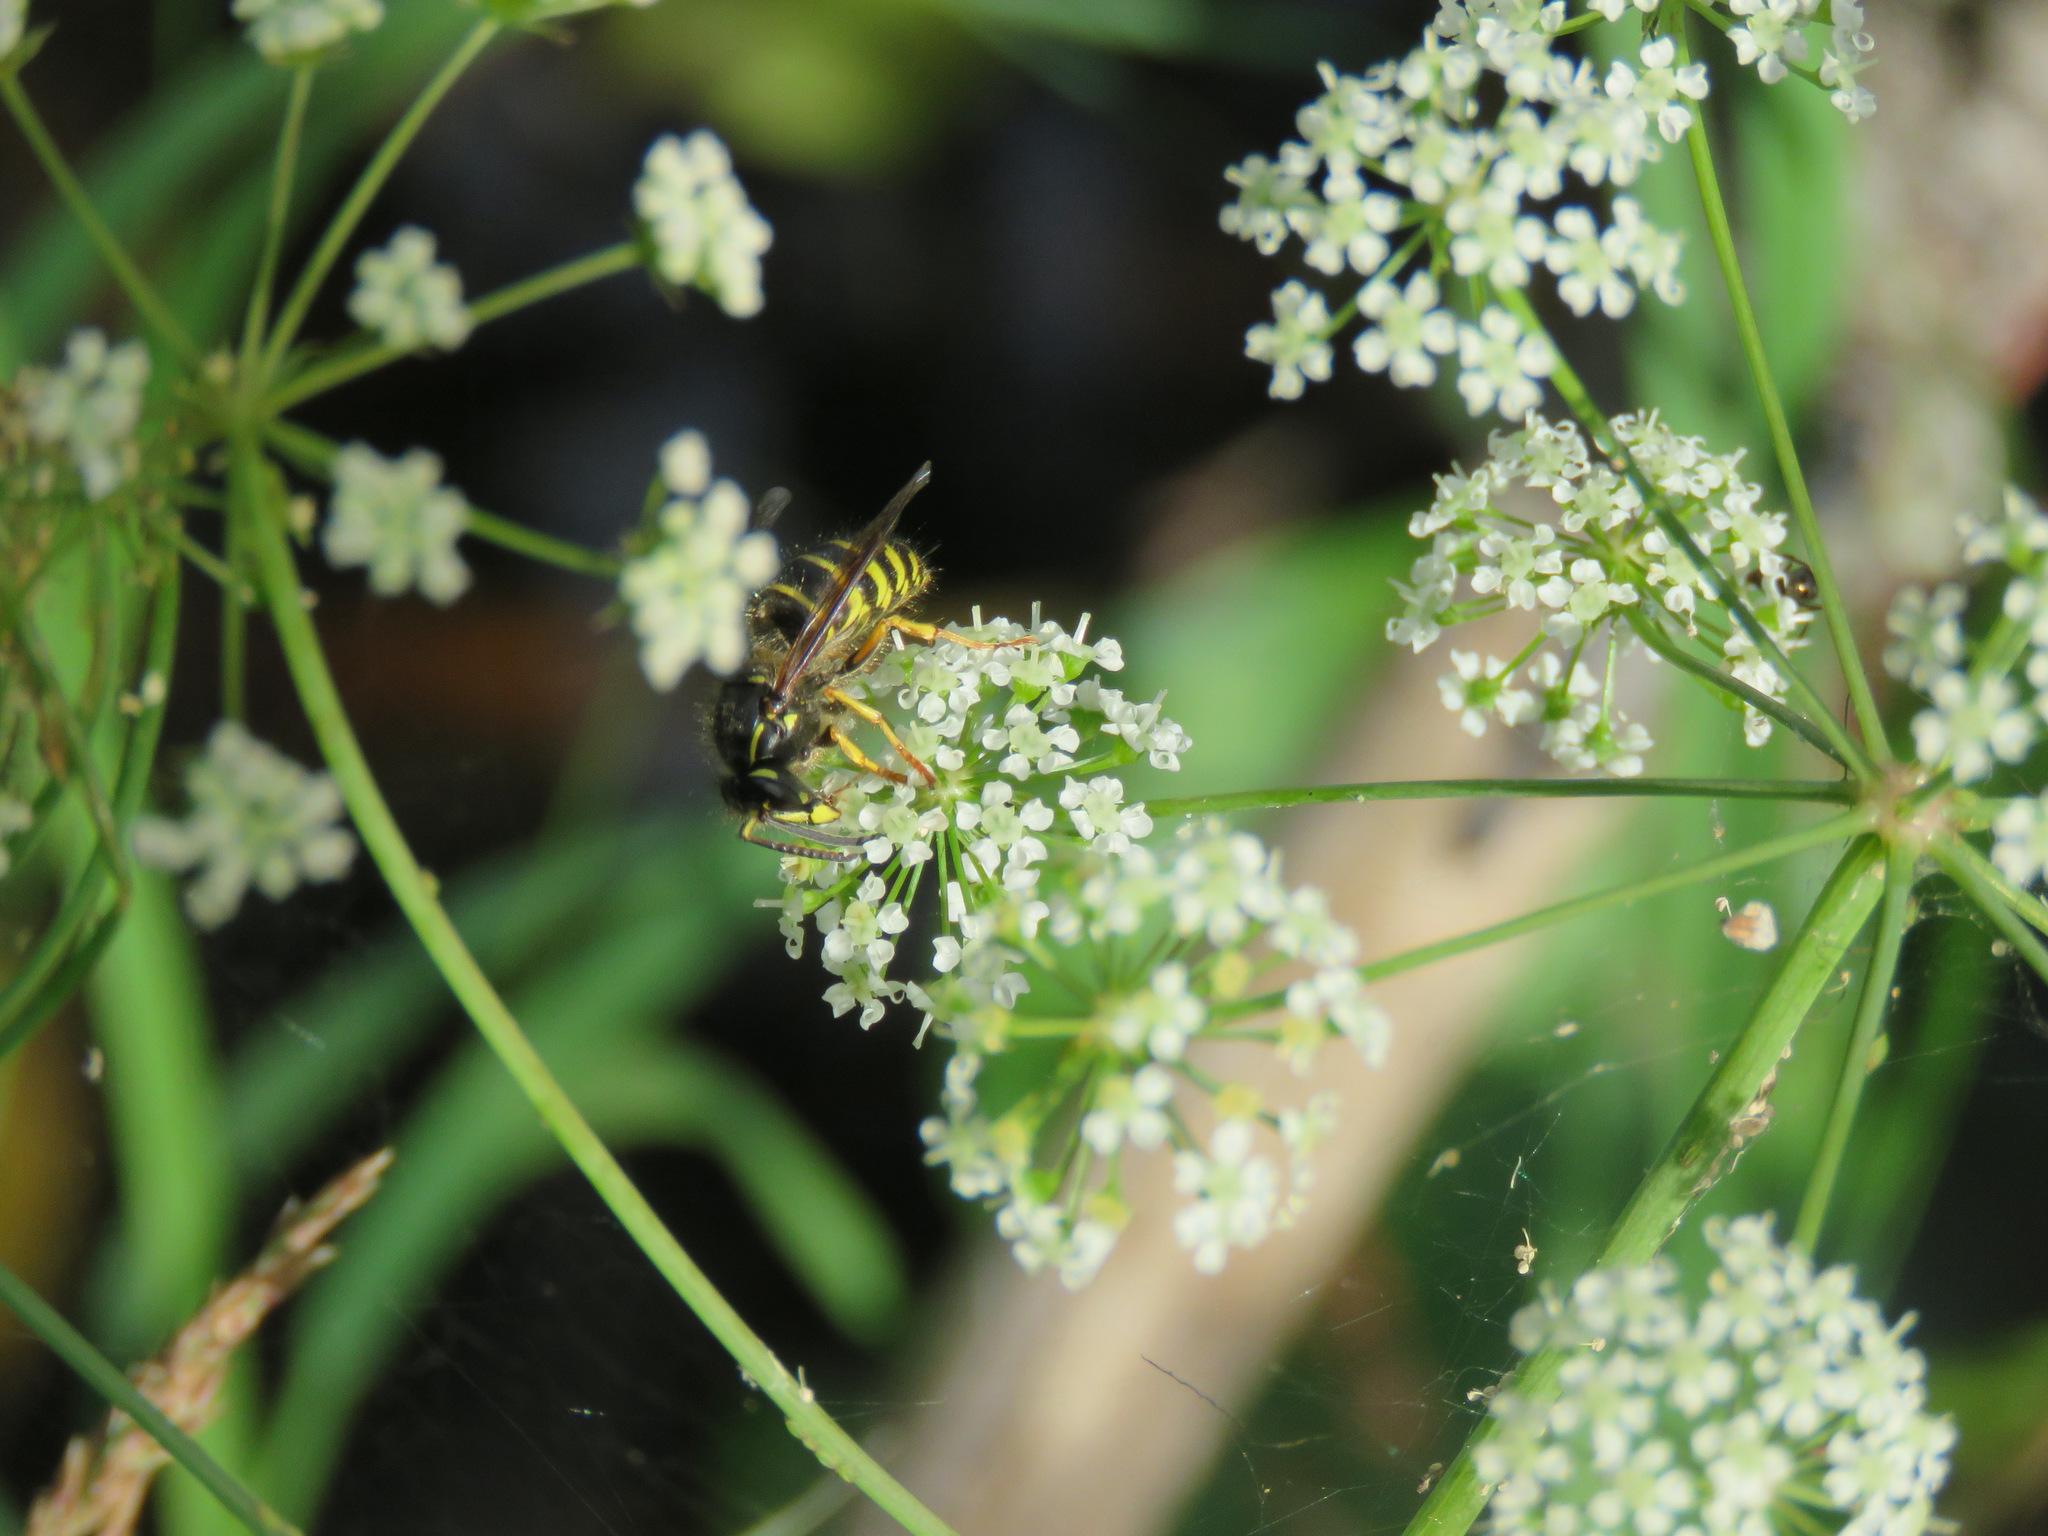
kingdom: Animalia
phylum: Arthropoda
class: Insecta
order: Hymenoptera
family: Vespidae
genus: Dolichovespula
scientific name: Dolichovespula
